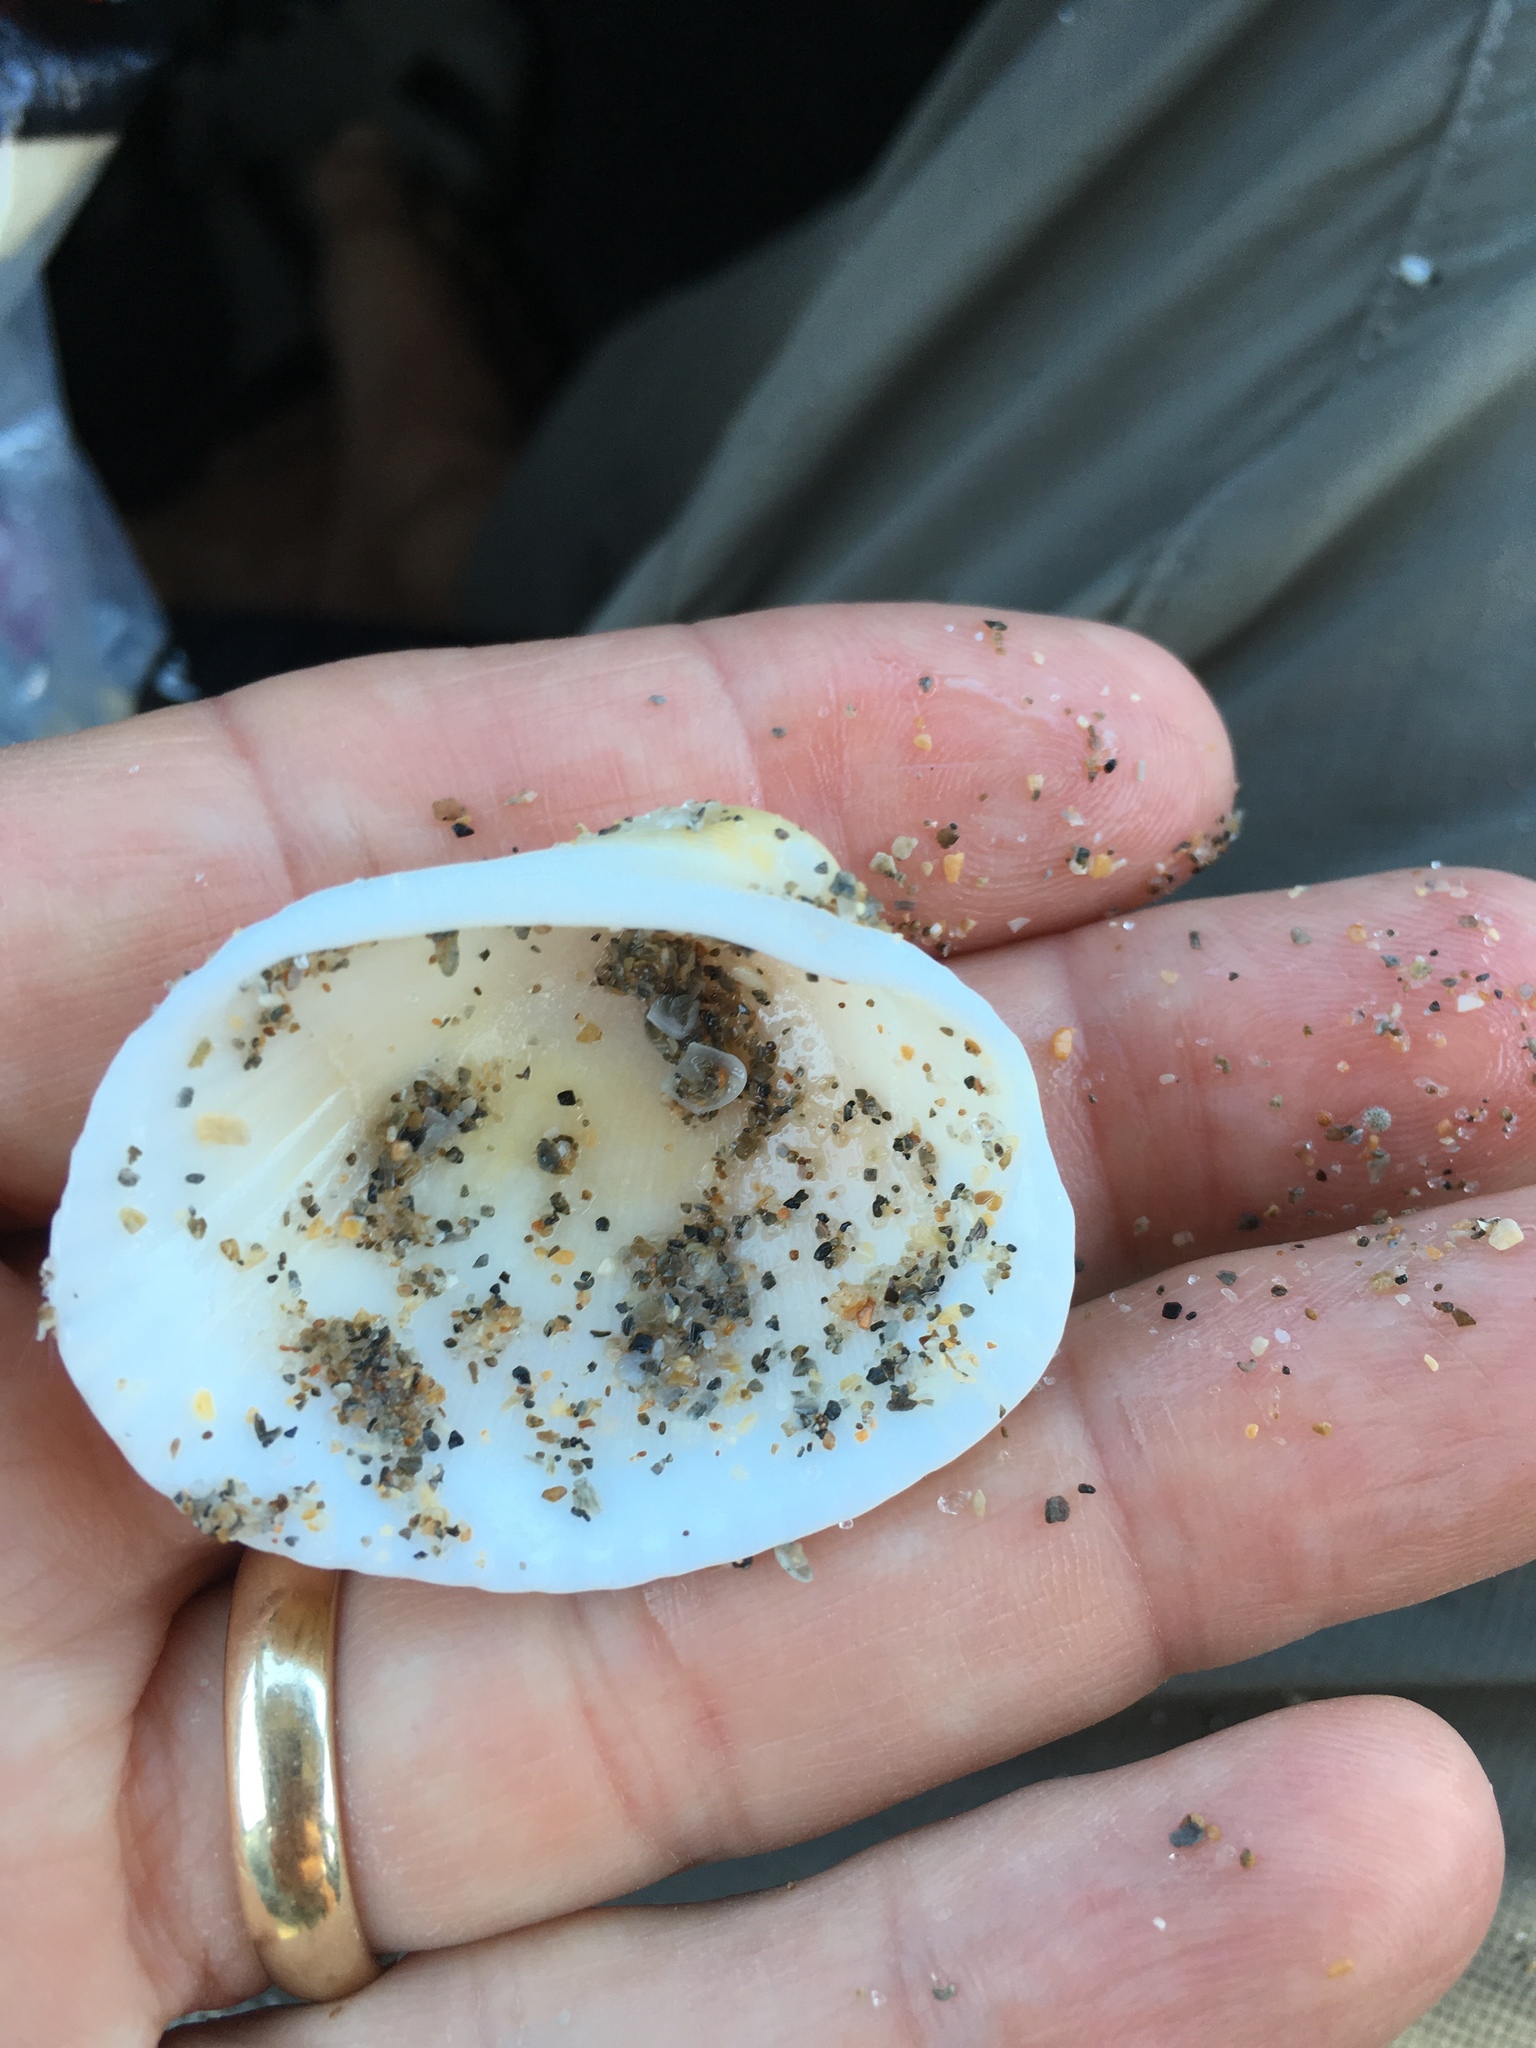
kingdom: Animalia
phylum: Mollusca
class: Bivalvia
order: Arcida
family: Arcidae
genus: Lunarca
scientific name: Lunarca ovalis
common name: Blood ark
